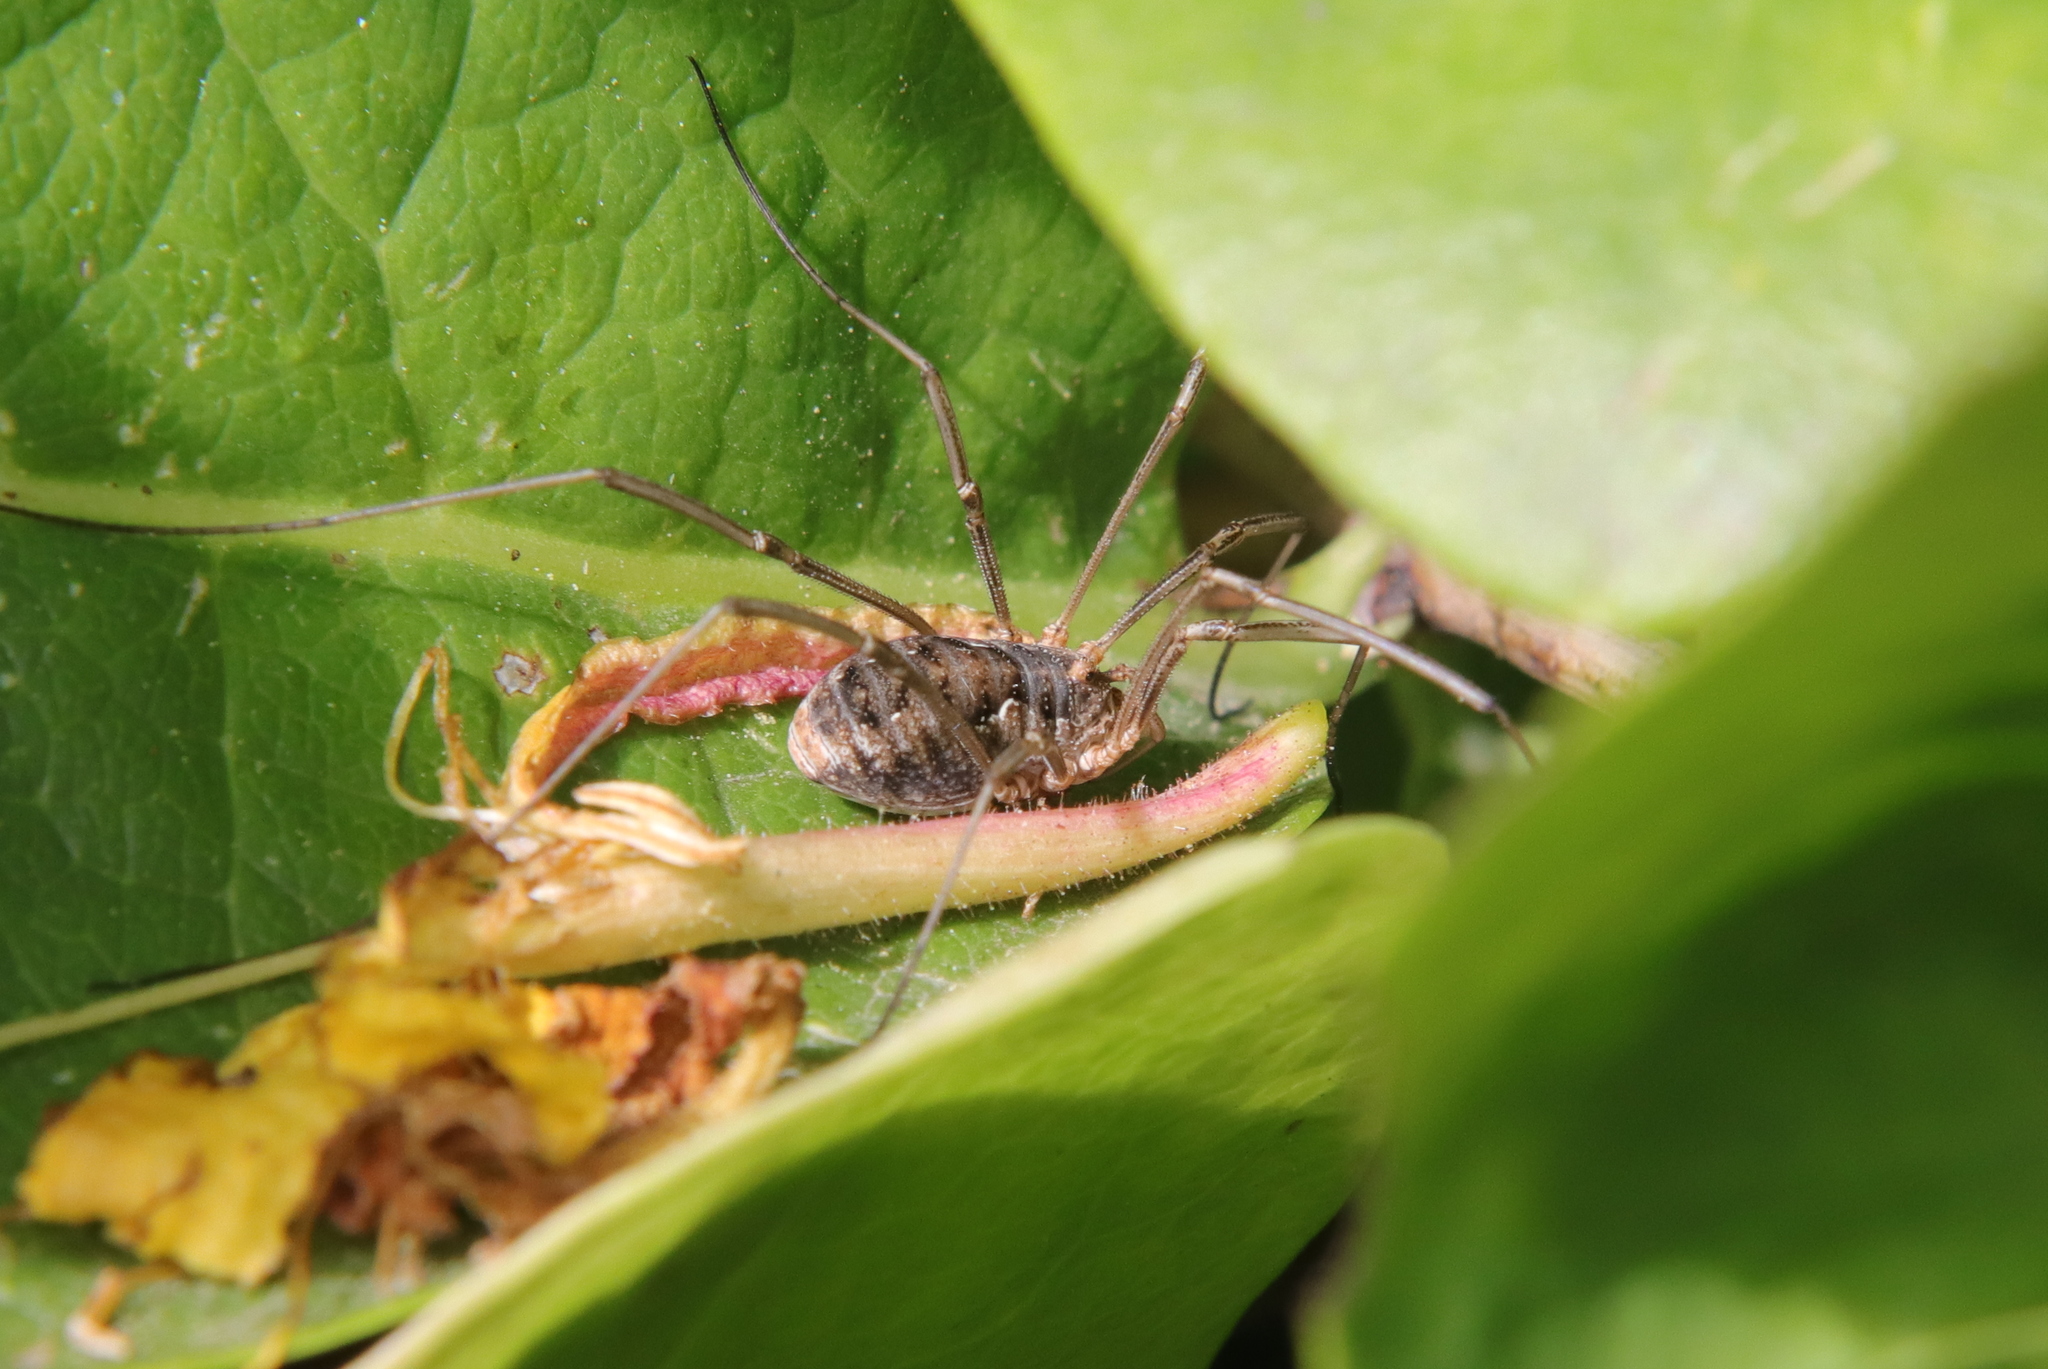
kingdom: Animalia
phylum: Arthropoda
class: Arachnida
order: Opiliones
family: Phalangiidae
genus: Phalangium
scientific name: Phalangium opilio
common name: Daddy longleg
